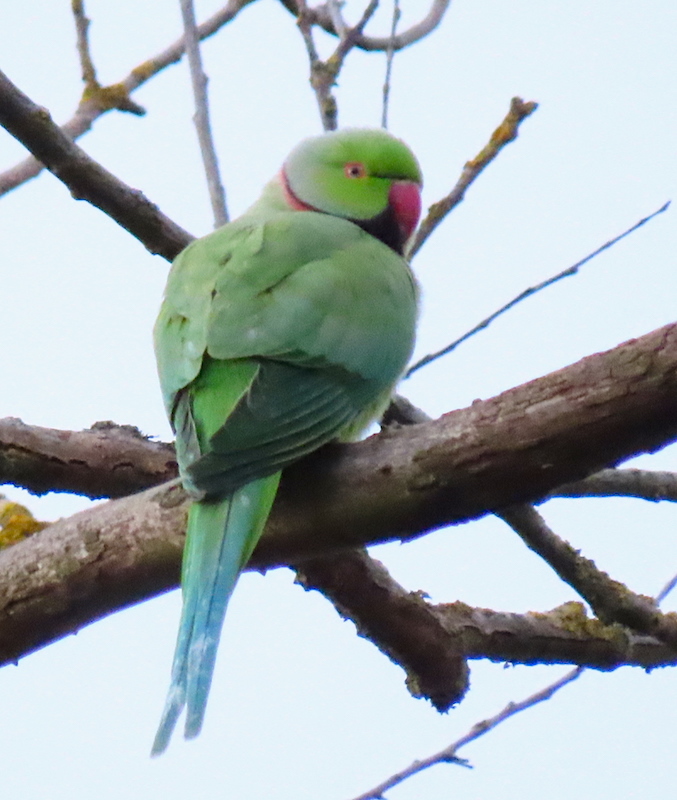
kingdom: Animalia
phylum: Chordata
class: Aves
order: Psittaciformes
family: Psittacidae
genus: Psittacula
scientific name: Psittacula krameri
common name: Rose-ringed parakeet
